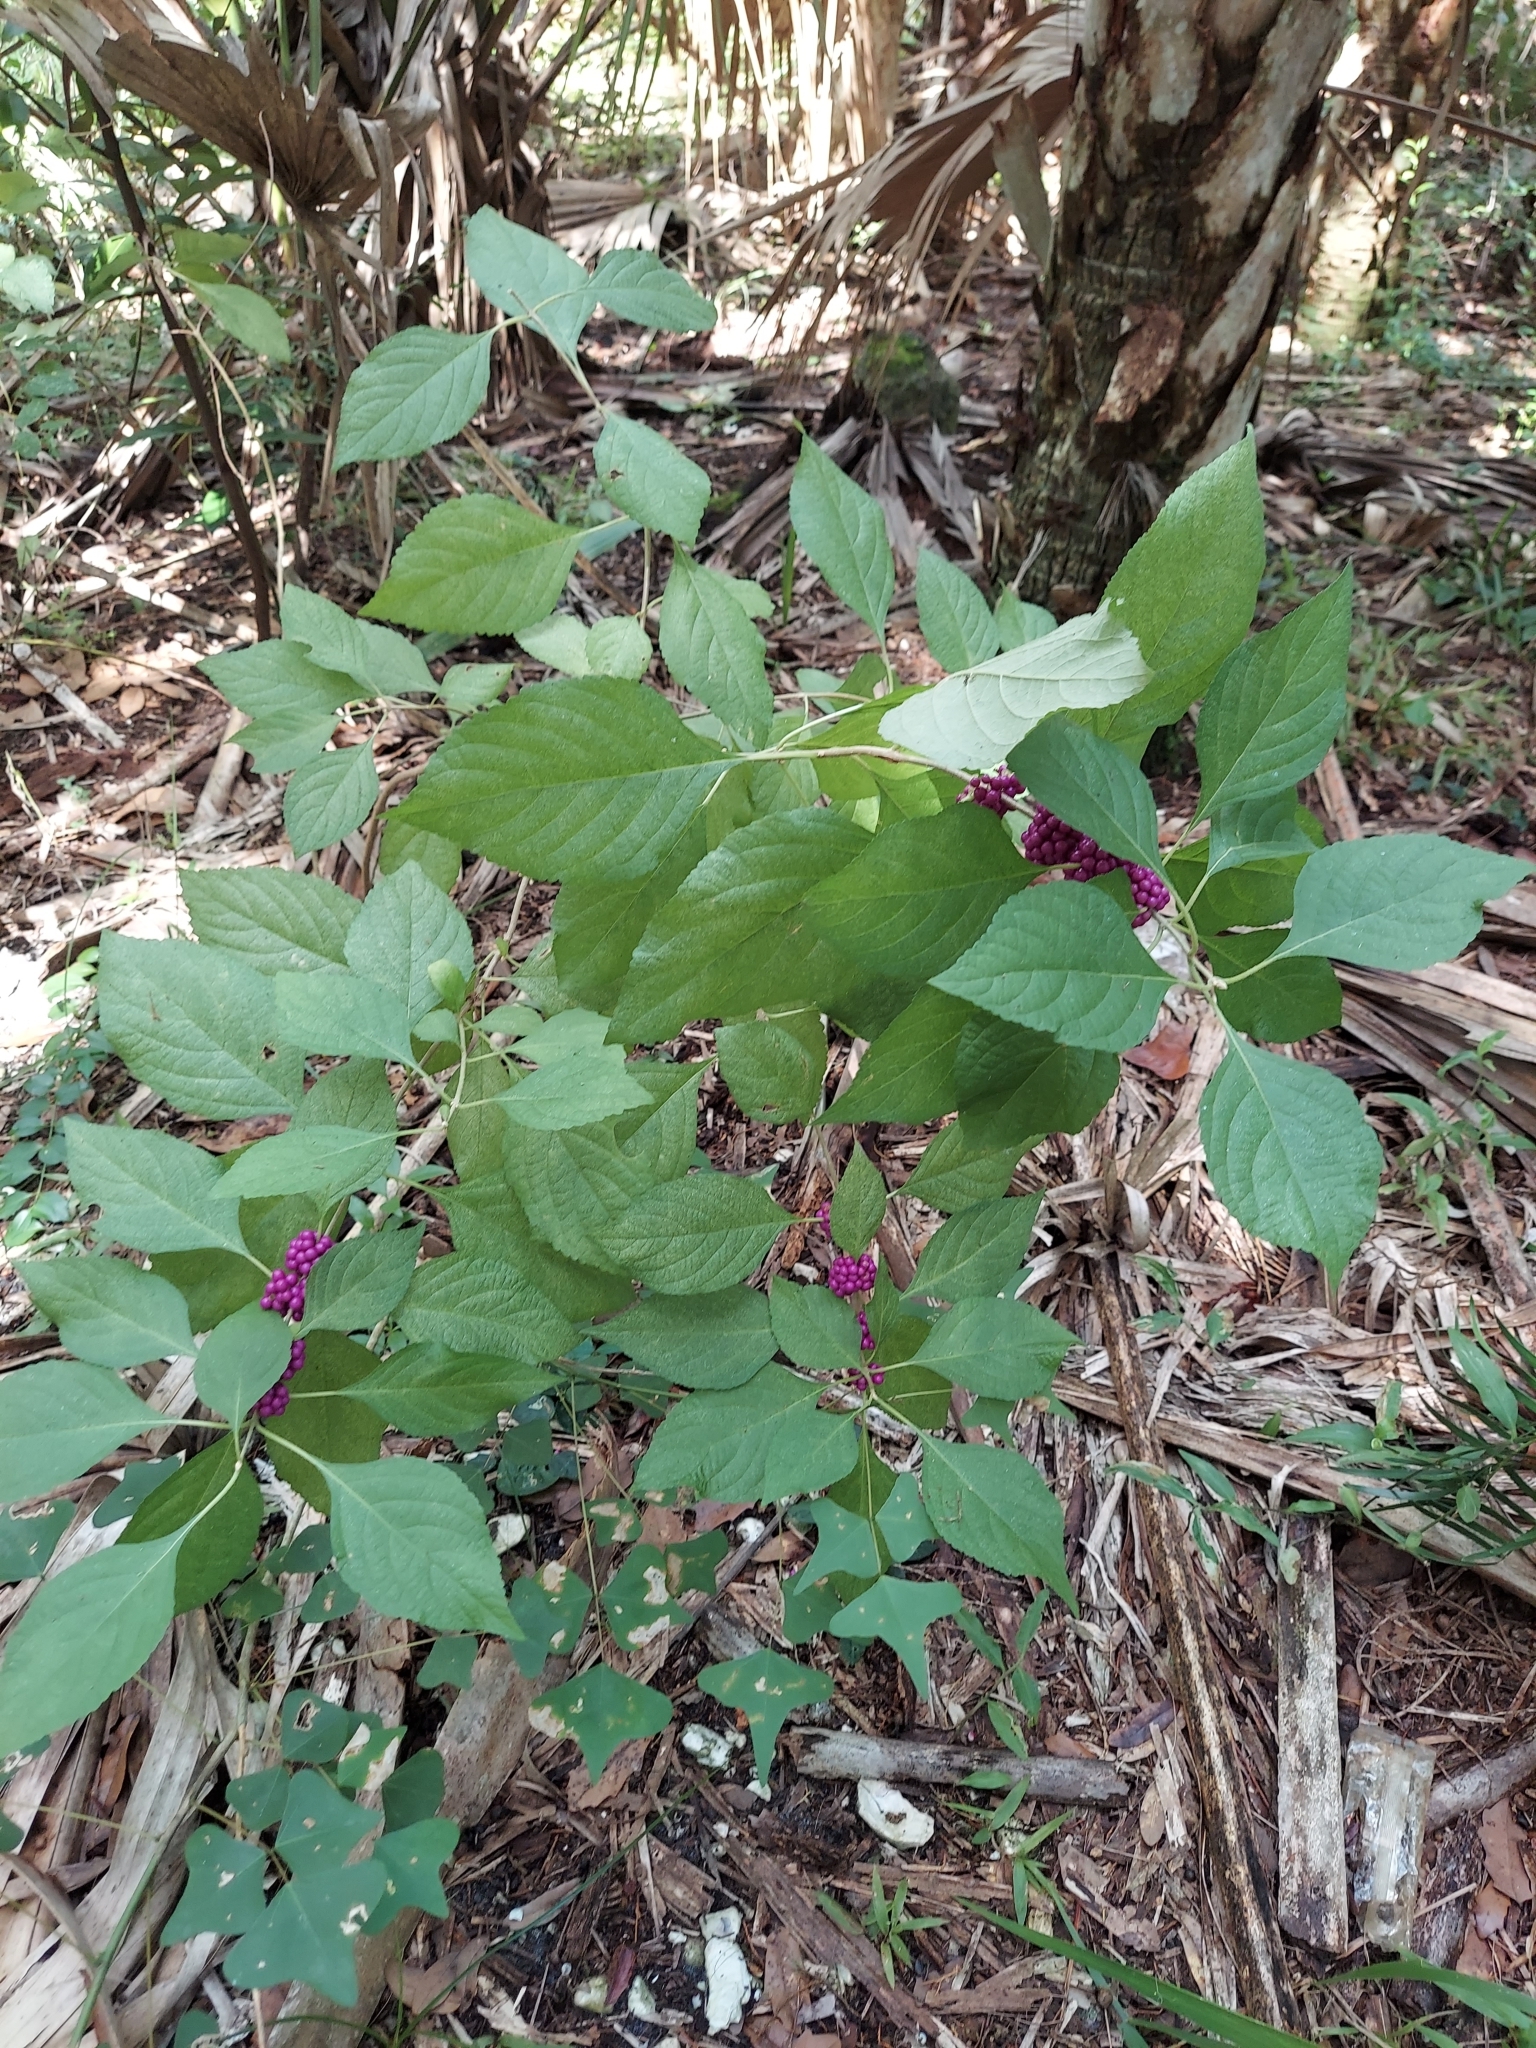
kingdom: Plantae
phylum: Tracheophyta
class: Magnoliopsida
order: Lamiales
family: Lamiaceae
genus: Callicarpa
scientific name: Callicarpa americana
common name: American beautyberry
